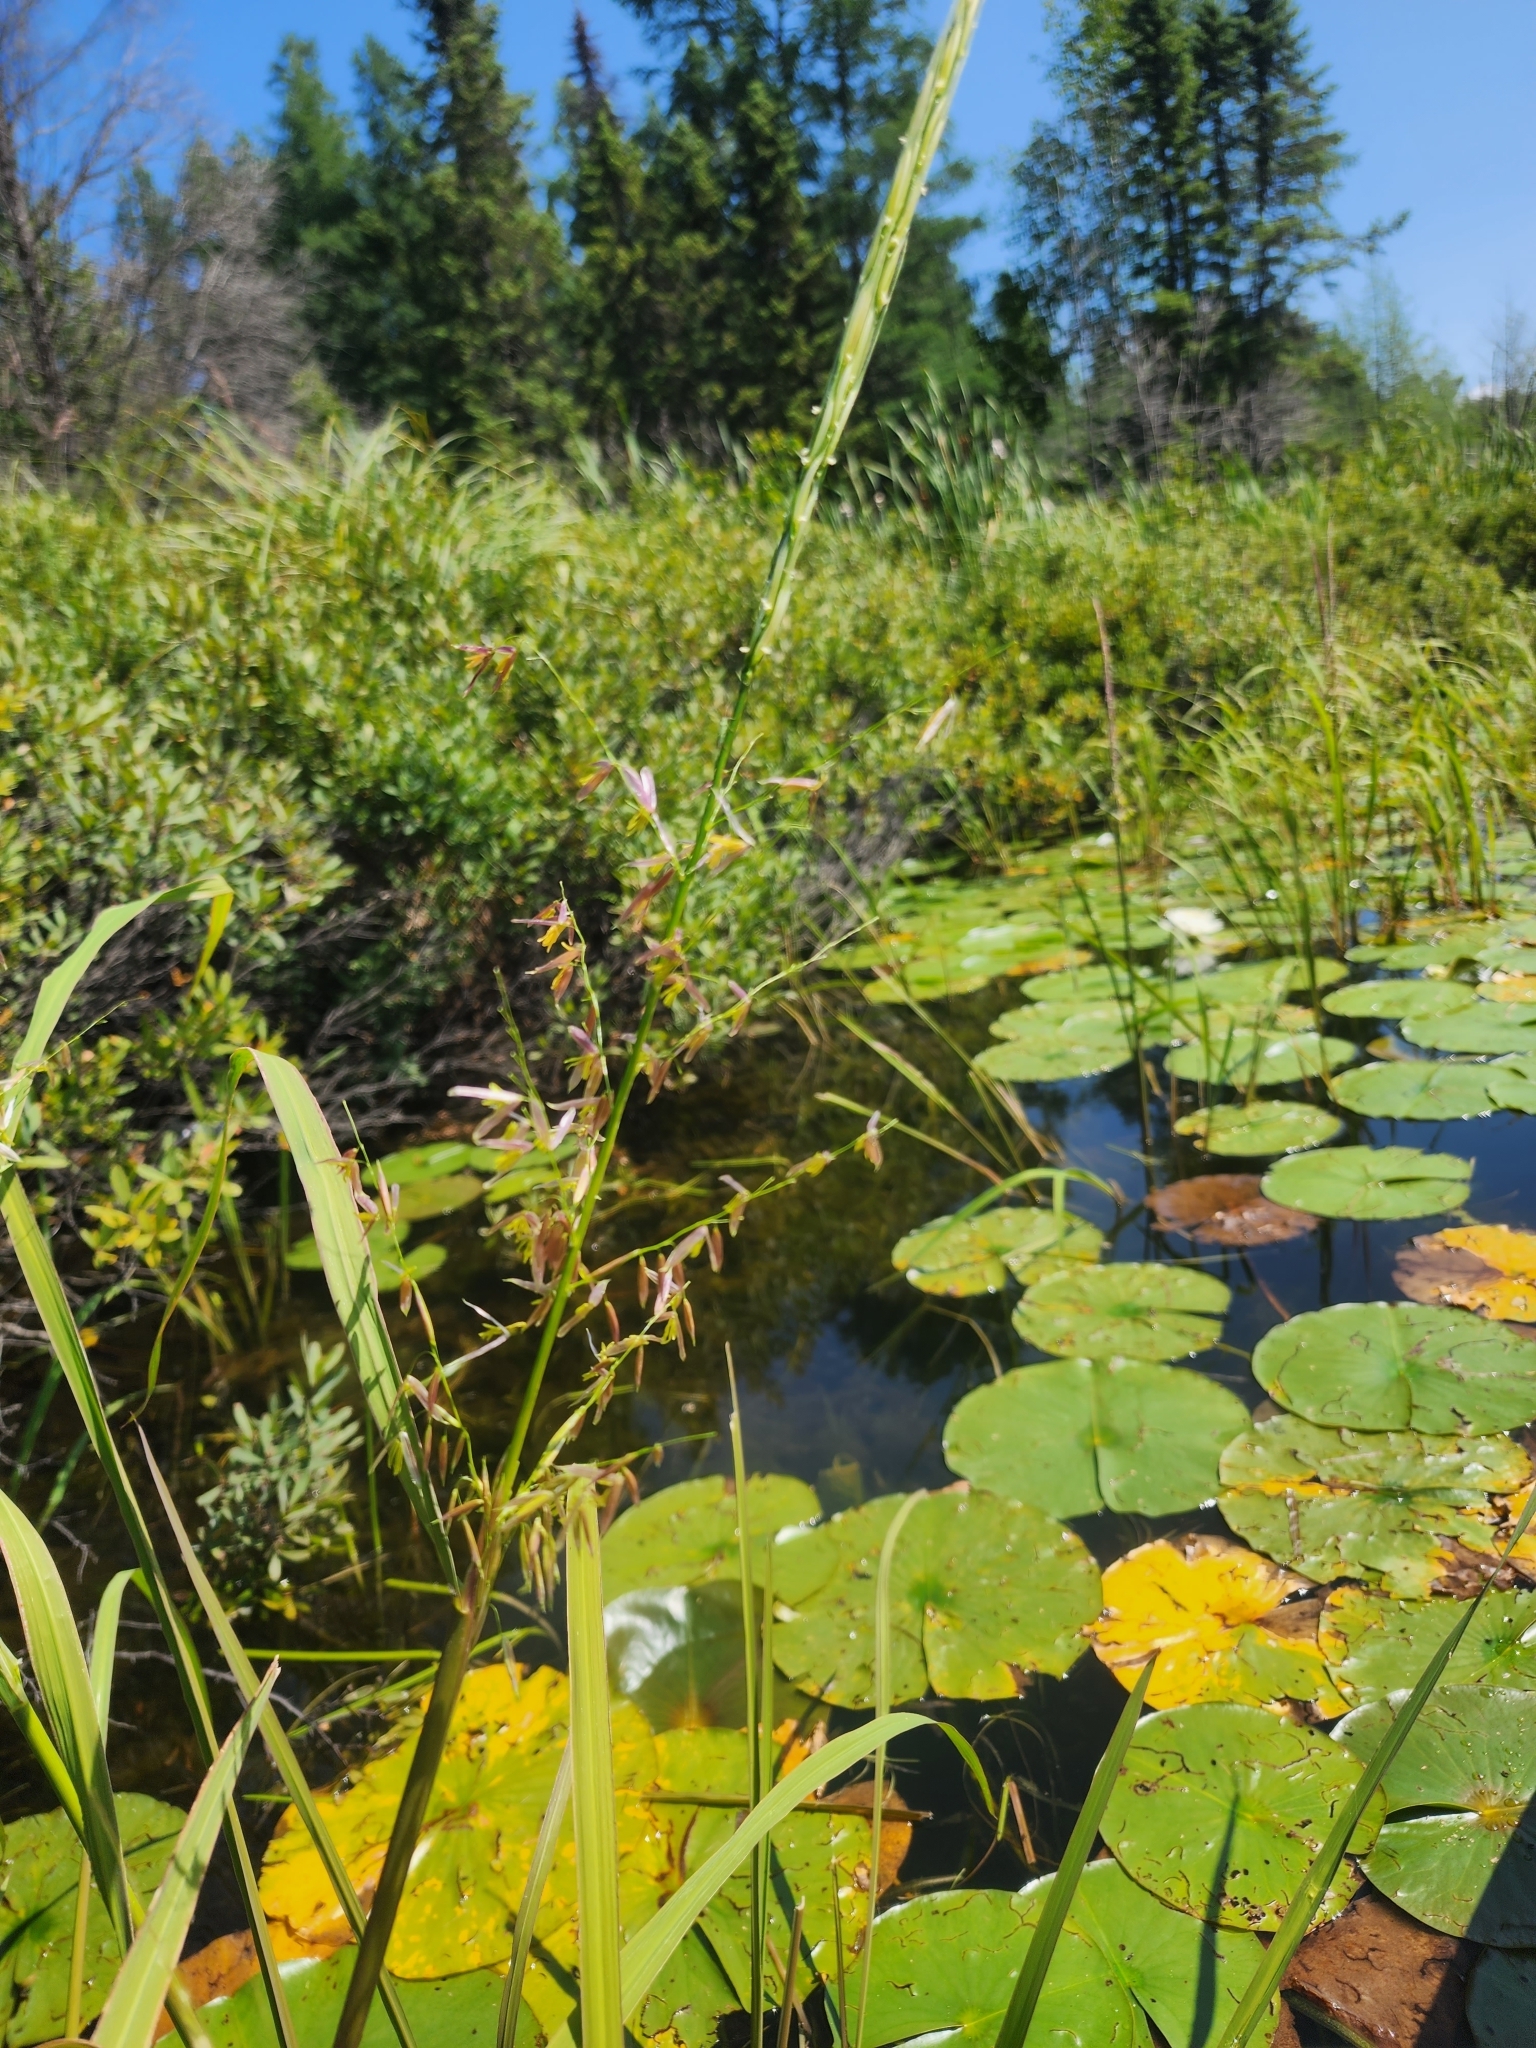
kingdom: Plantae
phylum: Tracheophyta
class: Liliopsida
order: Poales
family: Poaceae
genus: Zizania
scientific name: Zizania palustris
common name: Northern wild rice
